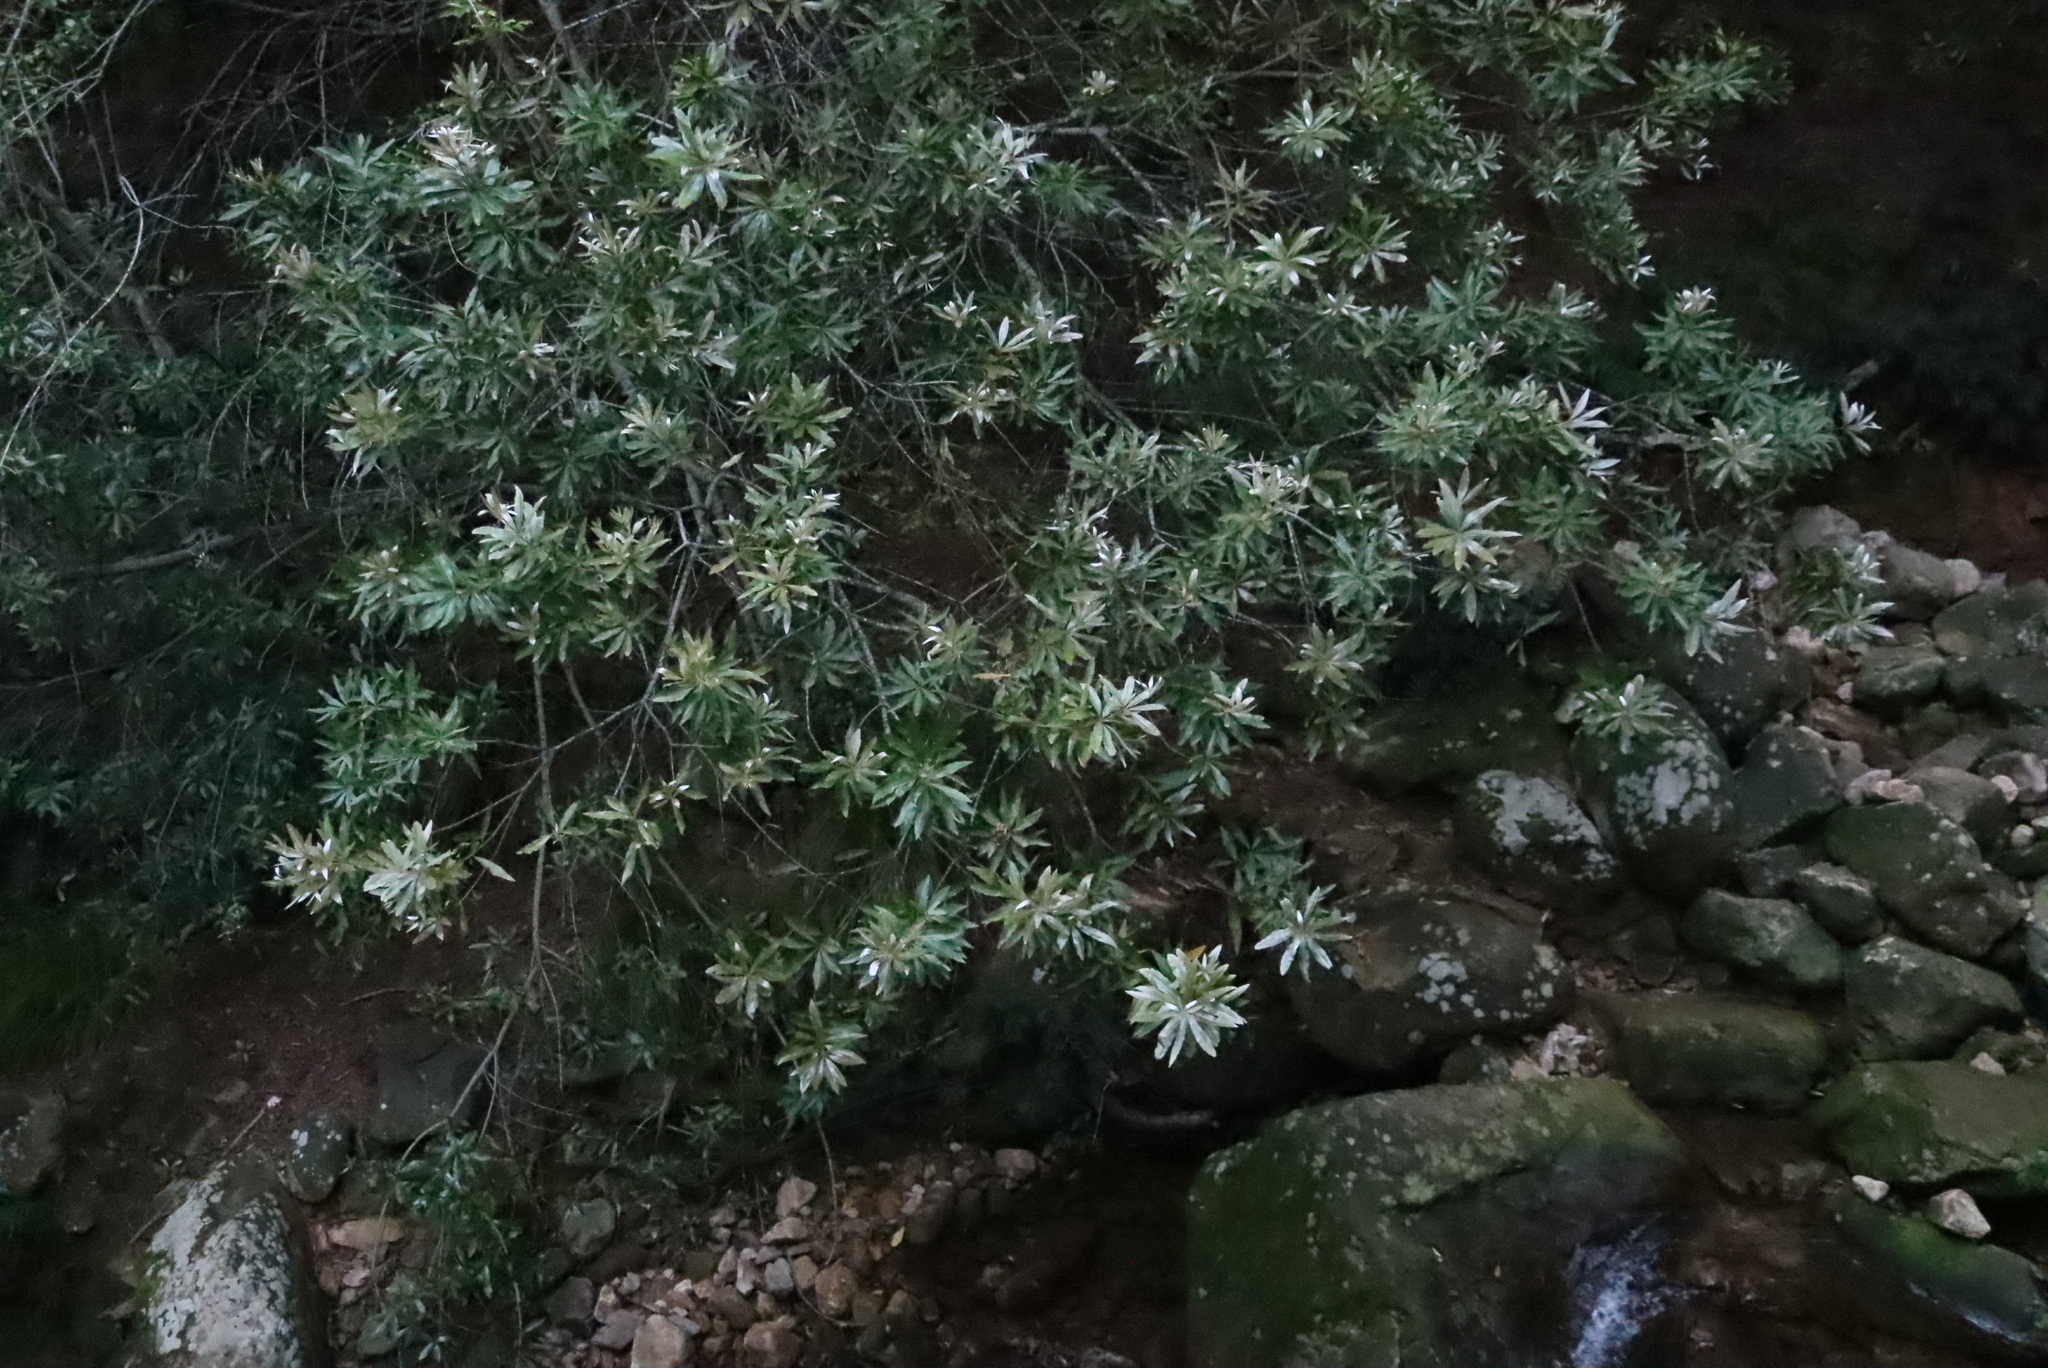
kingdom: Plantae
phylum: Tracheophyta
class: Magnoliopsida
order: Proteales
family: Proteaceae
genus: Brabejum
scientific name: Brabejum stellatifolium
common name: Wild almond
